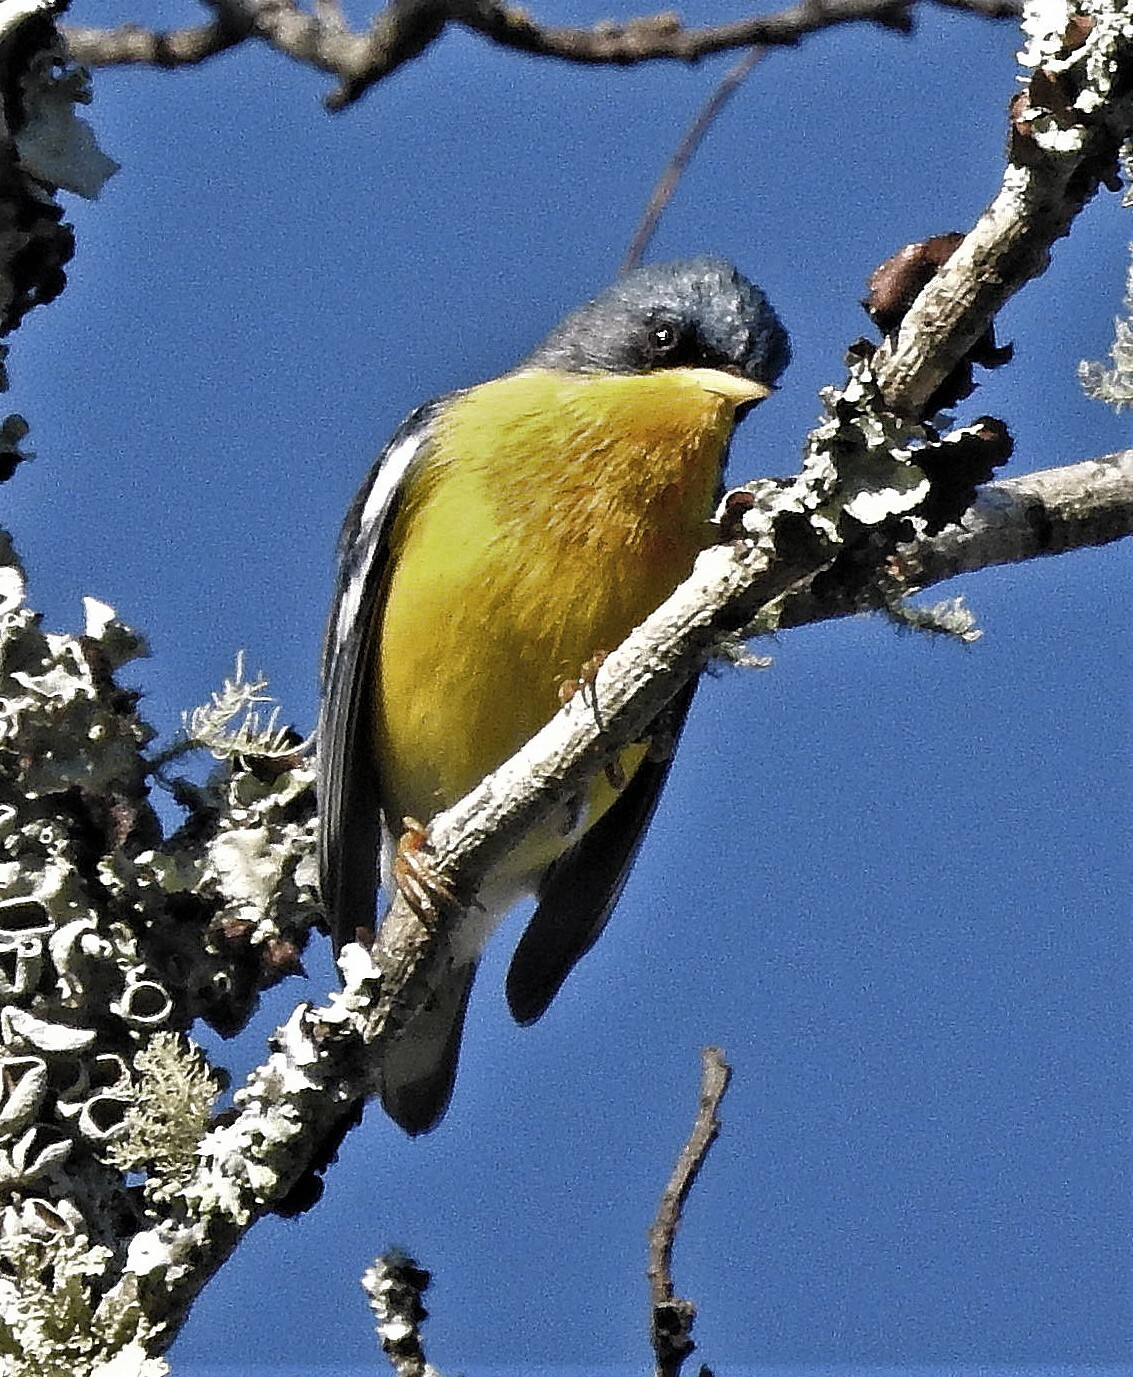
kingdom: Animalia
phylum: Chordata
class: Aves
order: Passeriformes
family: Parulidae
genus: Setophaga
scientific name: Setophaga pitiayumi
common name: Tropical parula
